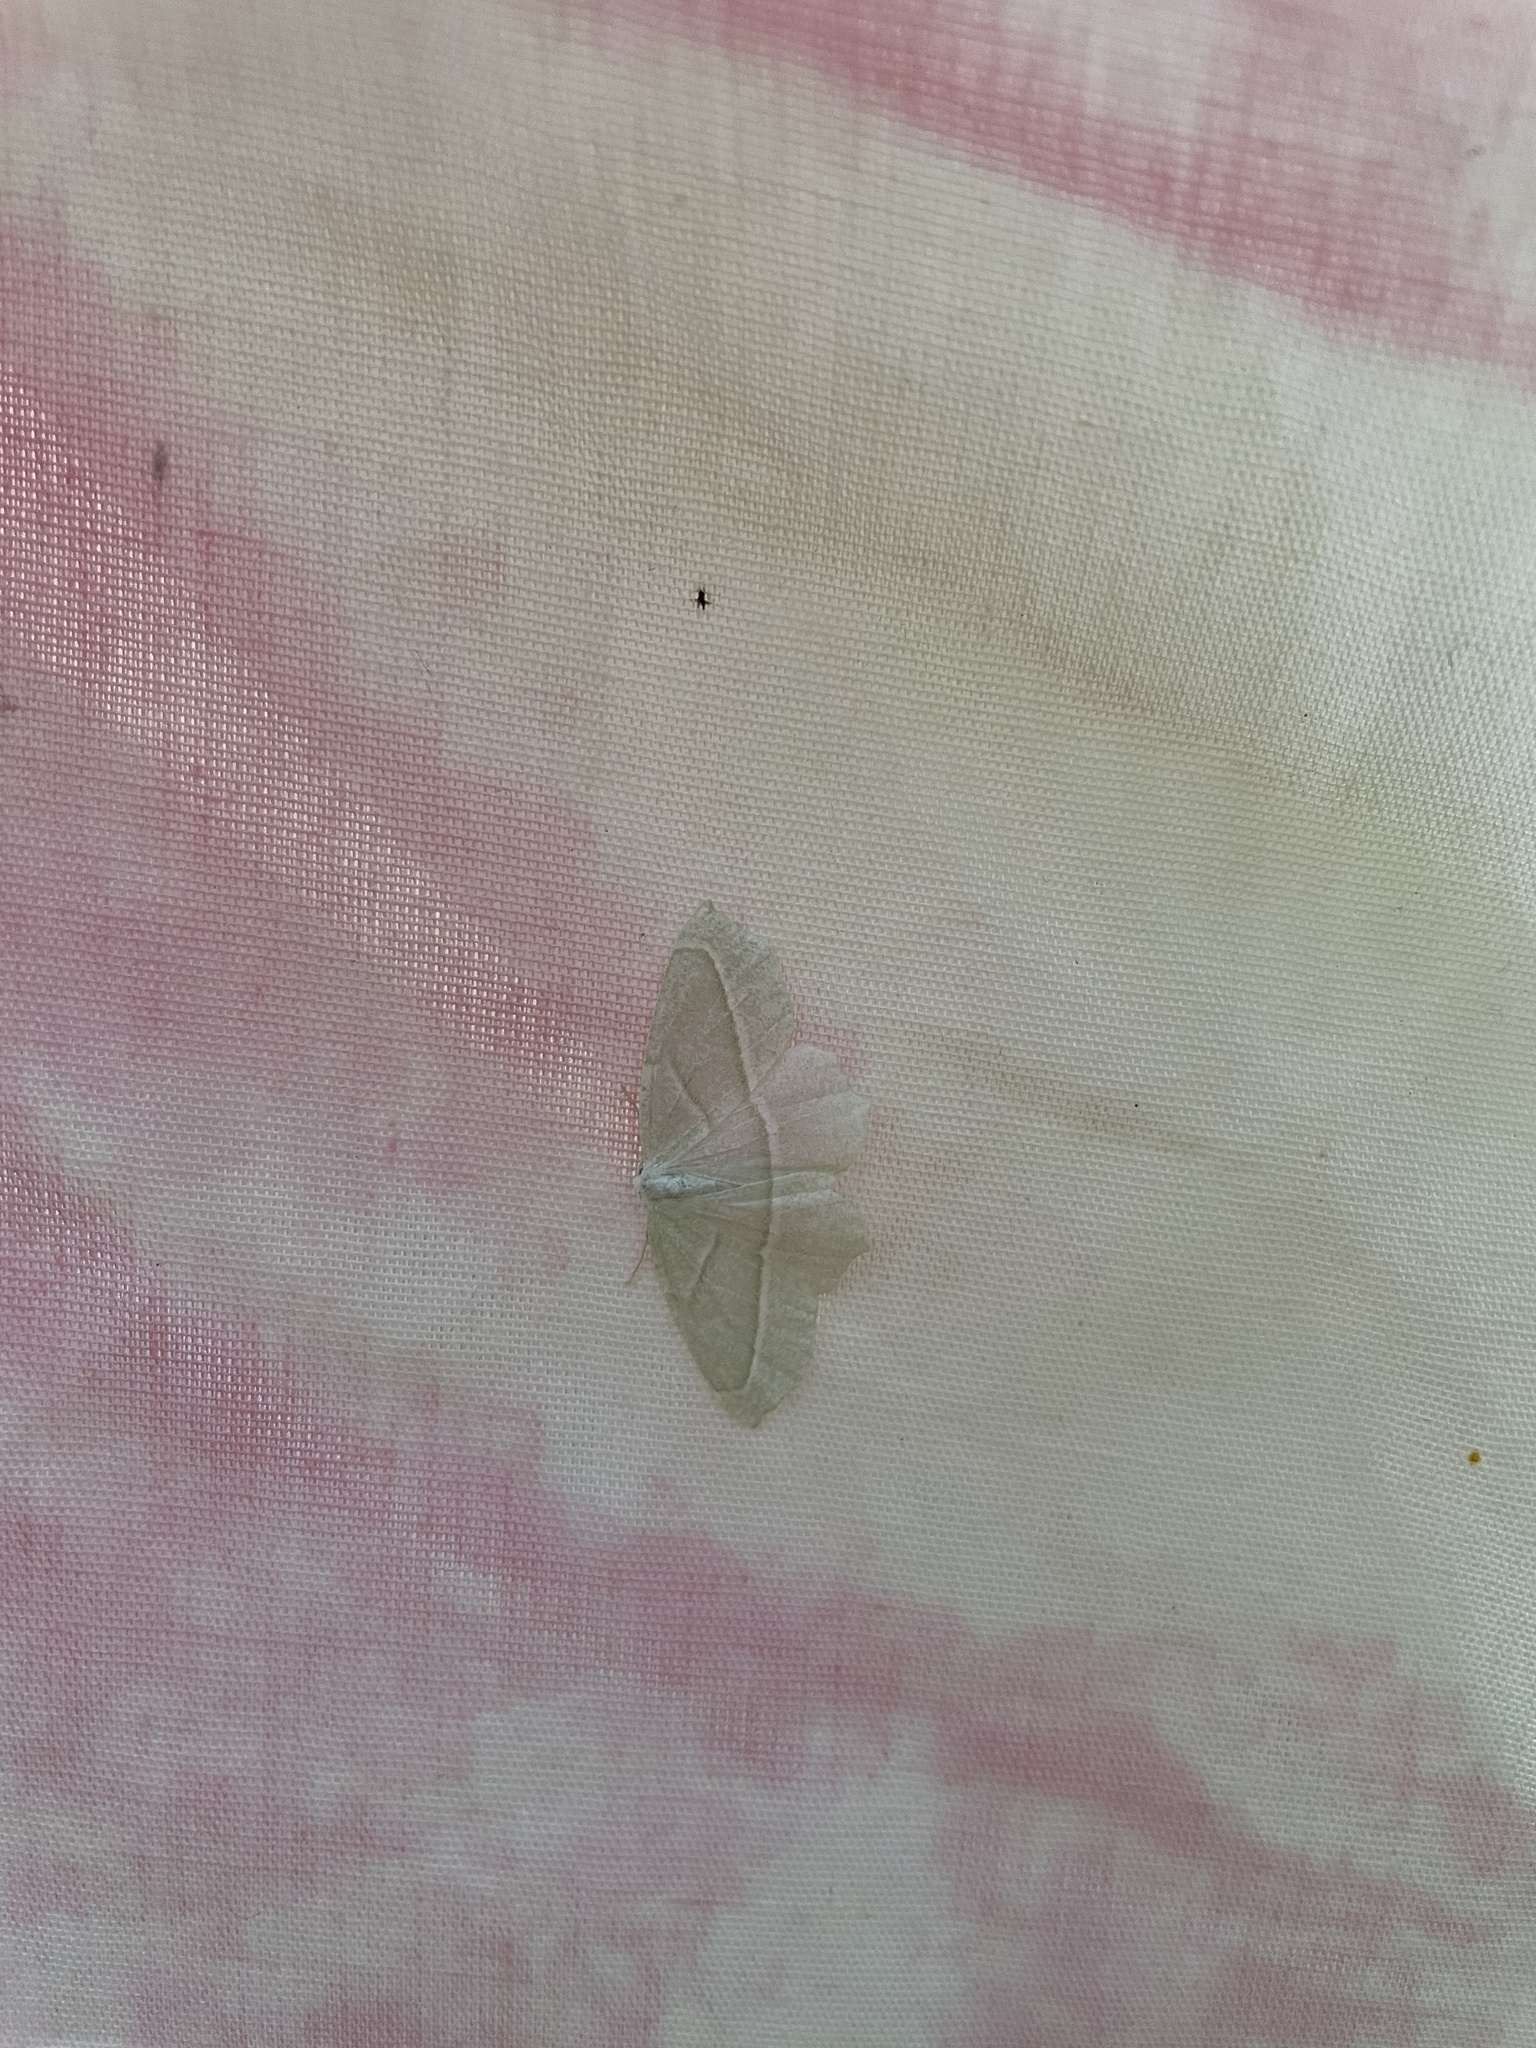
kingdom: Animalia
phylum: Arthropoda
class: Insecta
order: Lepidoptera
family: Geometridae
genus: Campaea
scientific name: Campaea perlata
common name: Fringed looper
